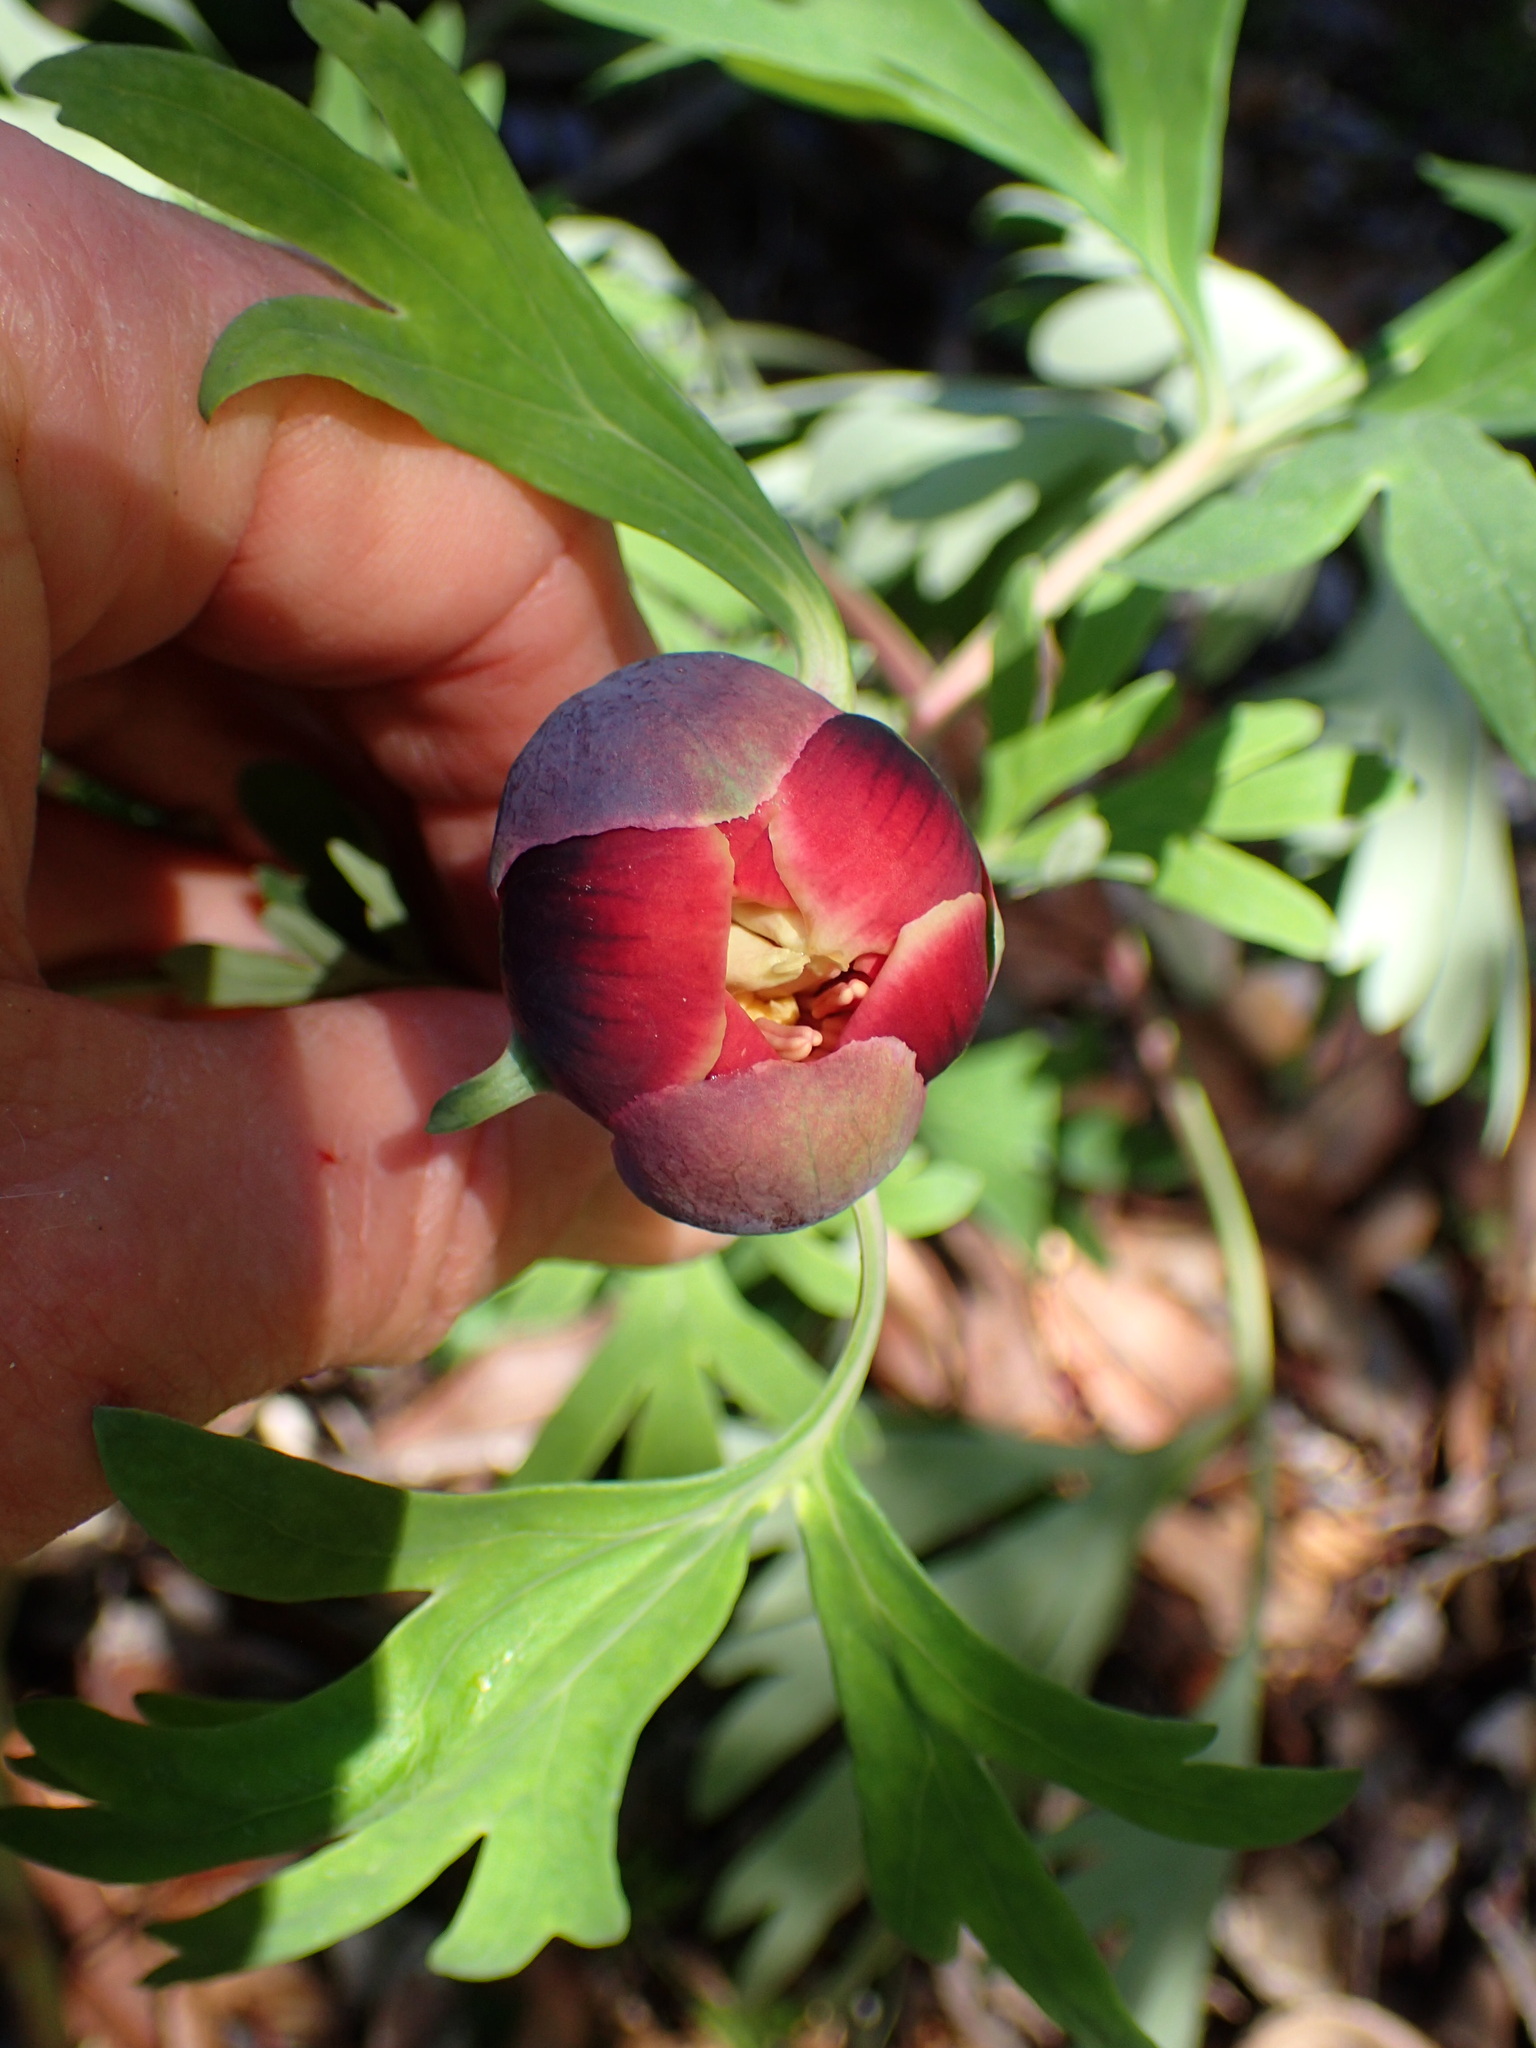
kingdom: Plantae
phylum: Tracheophyta
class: Magnoliopsida
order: Saxifragales
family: Paeoniaceae
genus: Paeonia
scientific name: Paeonia californica
